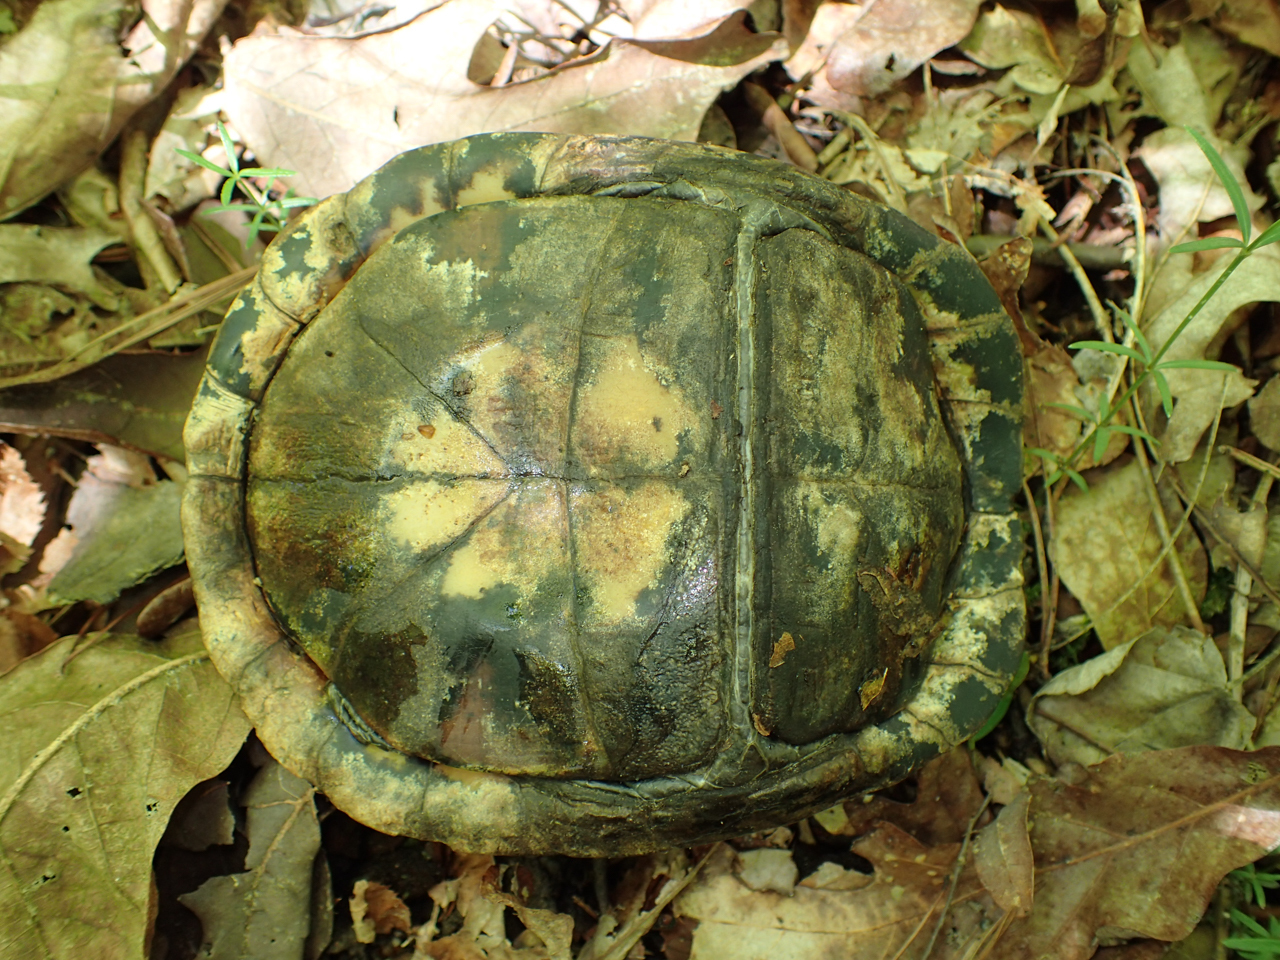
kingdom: Animalia
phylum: Chordata
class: Testudines
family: Emydidae
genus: Terrapene
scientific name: Terrapene carolina
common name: Common box turtle
